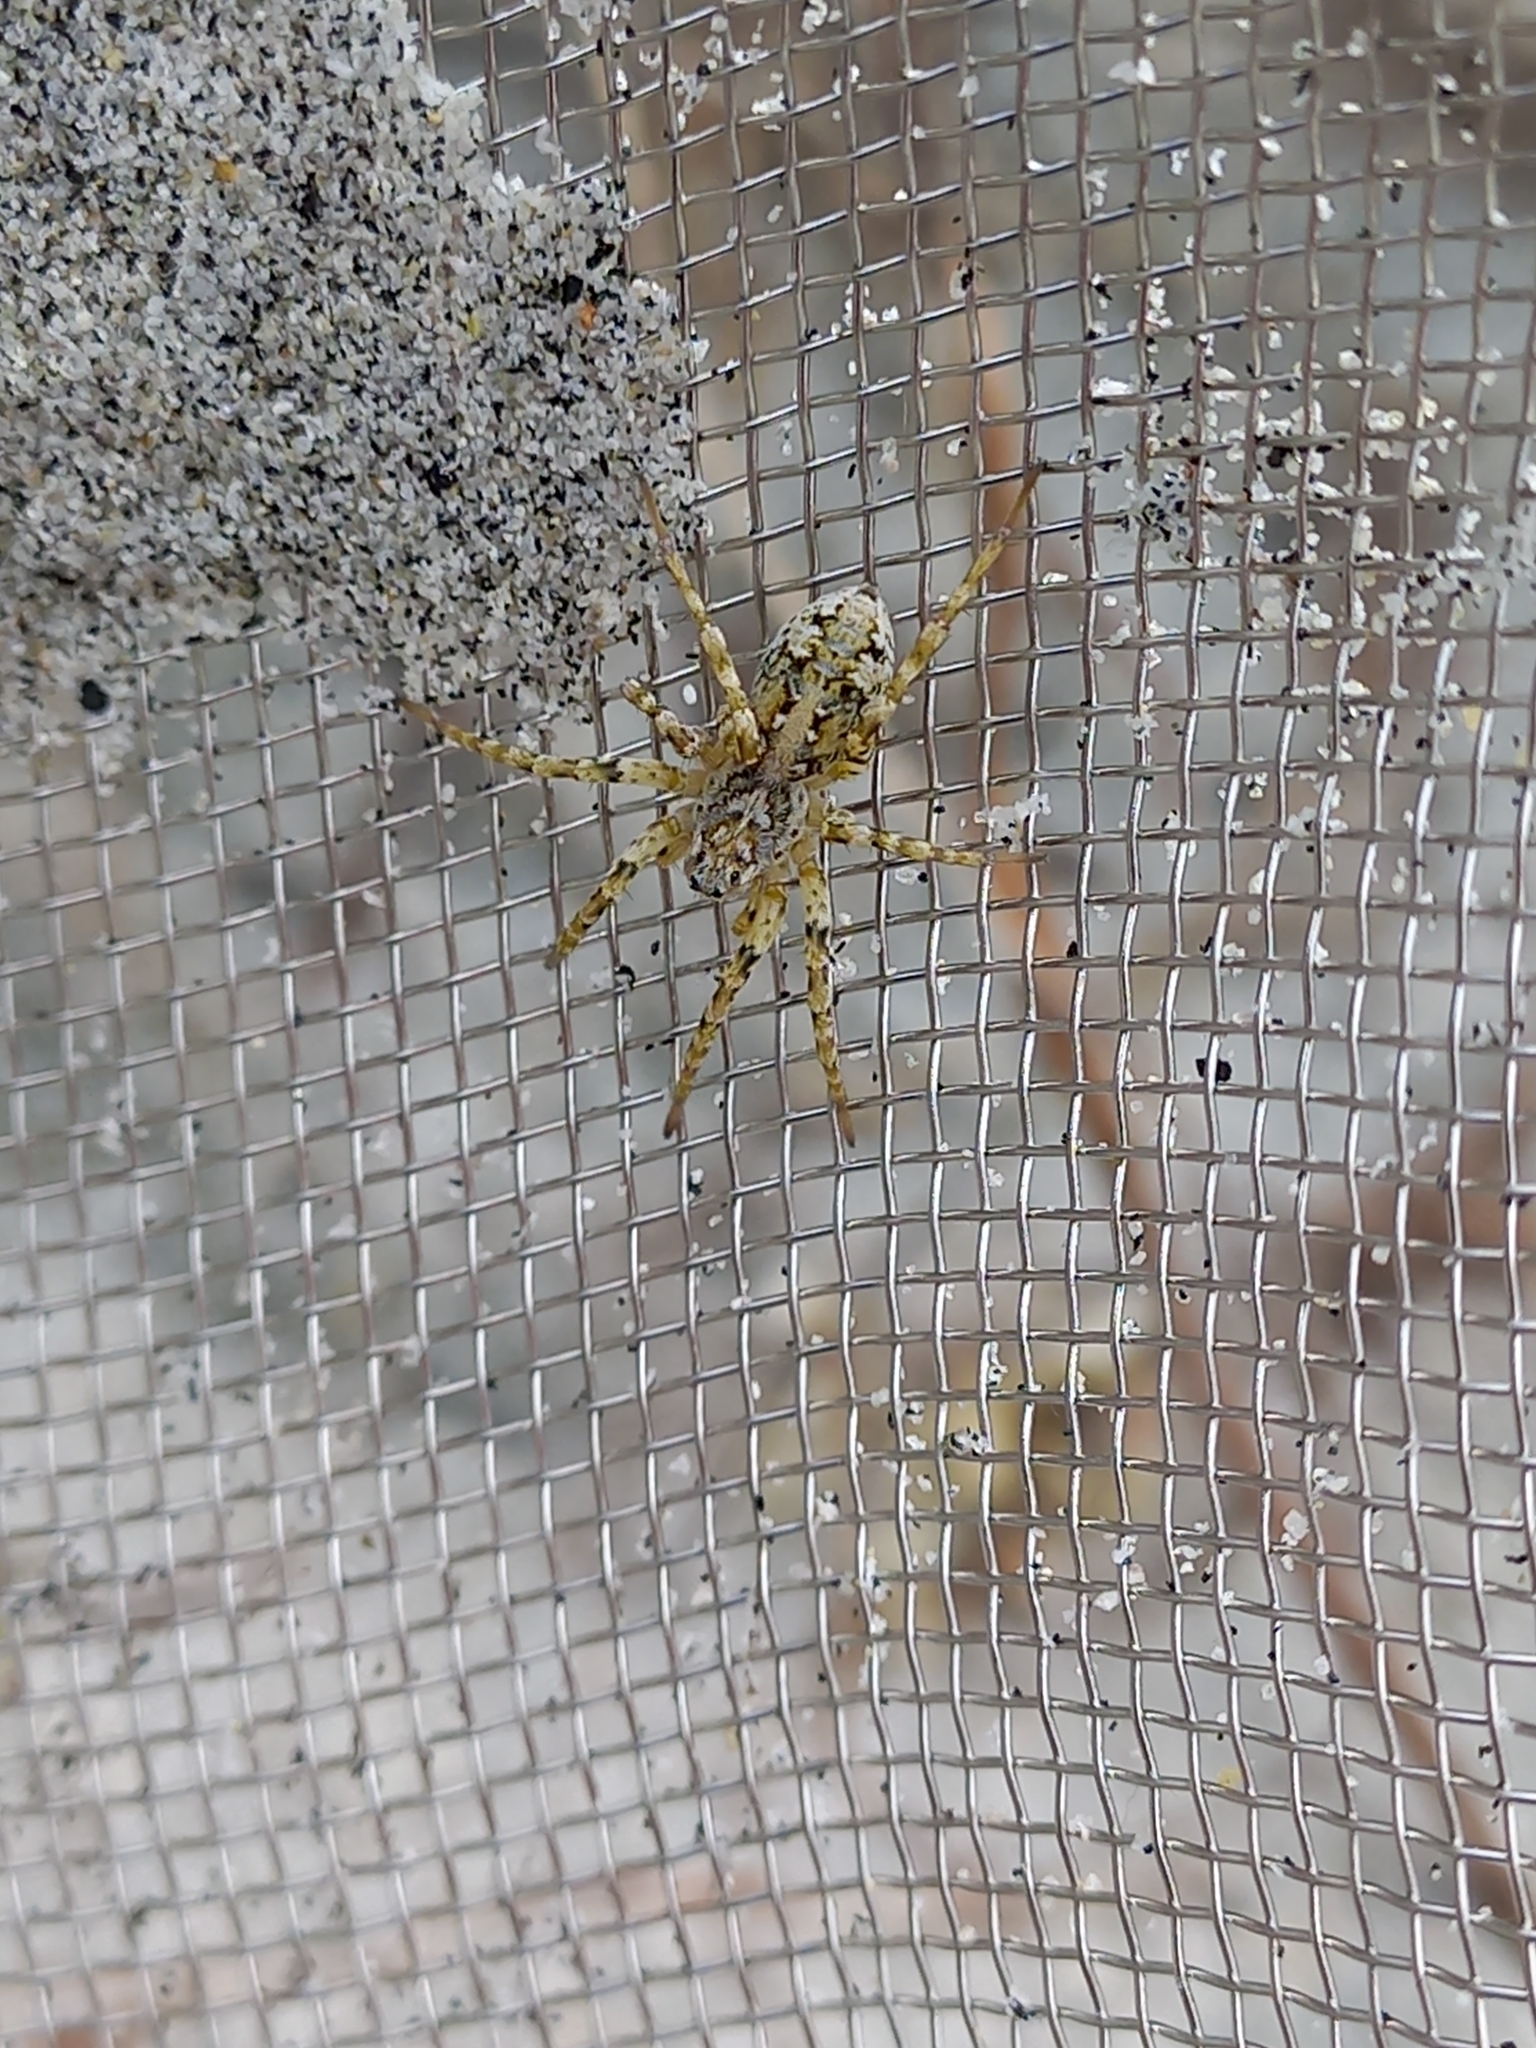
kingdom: Animalia
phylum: Arthropoda
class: Arachnida
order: Araneae
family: Lycosidae
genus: Anoteropsis
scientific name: Anoteropsis forsteri
